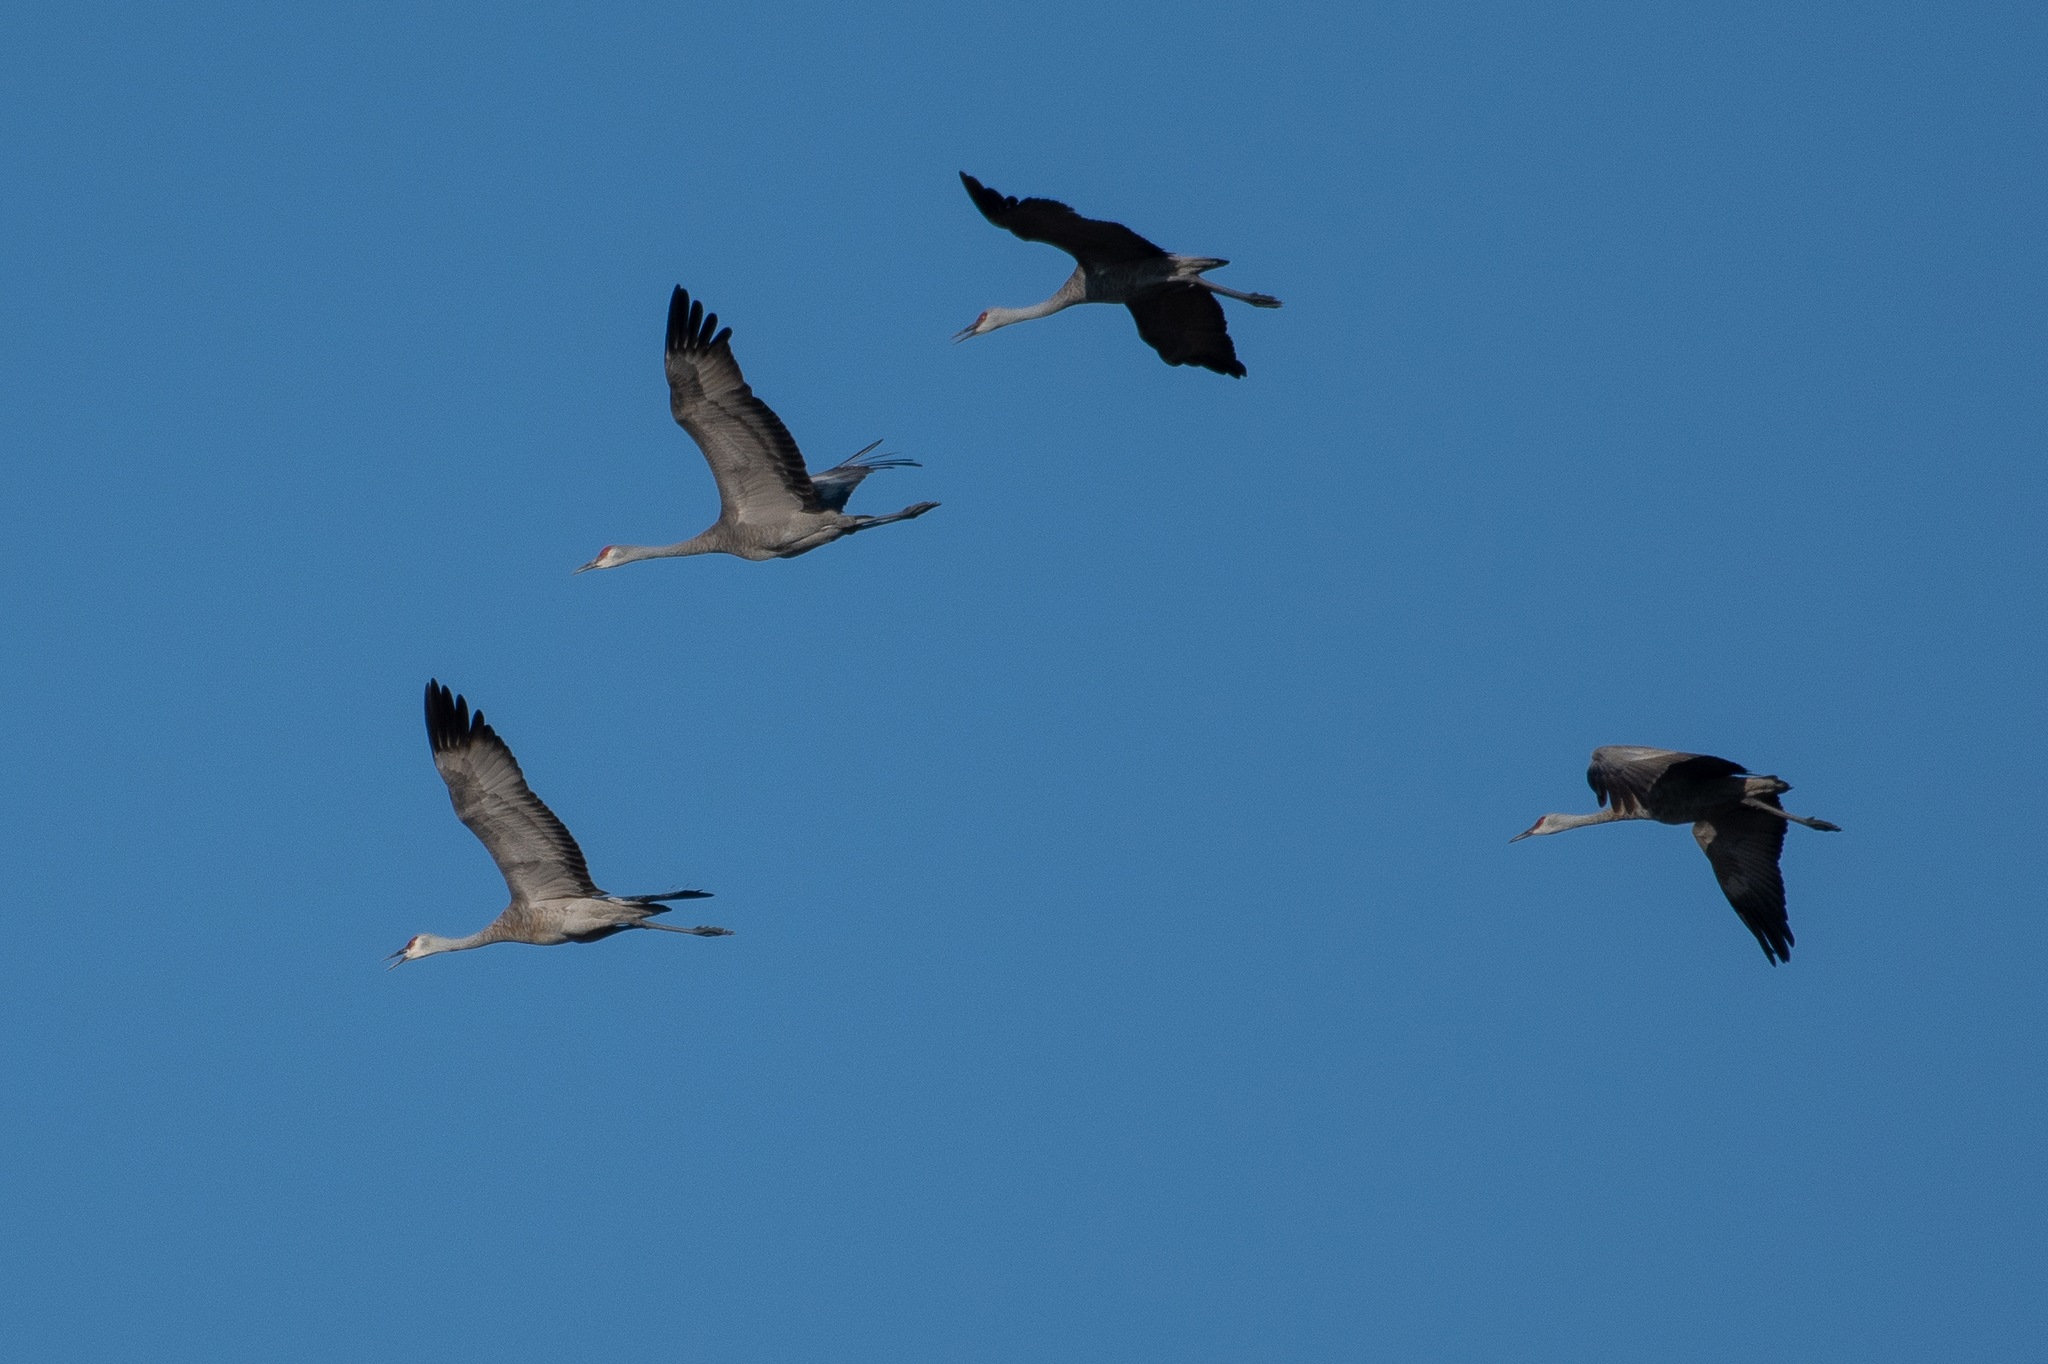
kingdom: Animalia
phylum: Chordata
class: Aves
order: Gruiformes
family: Gruidae
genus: Grus
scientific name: Grus canadensis
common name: Sandhill crane
